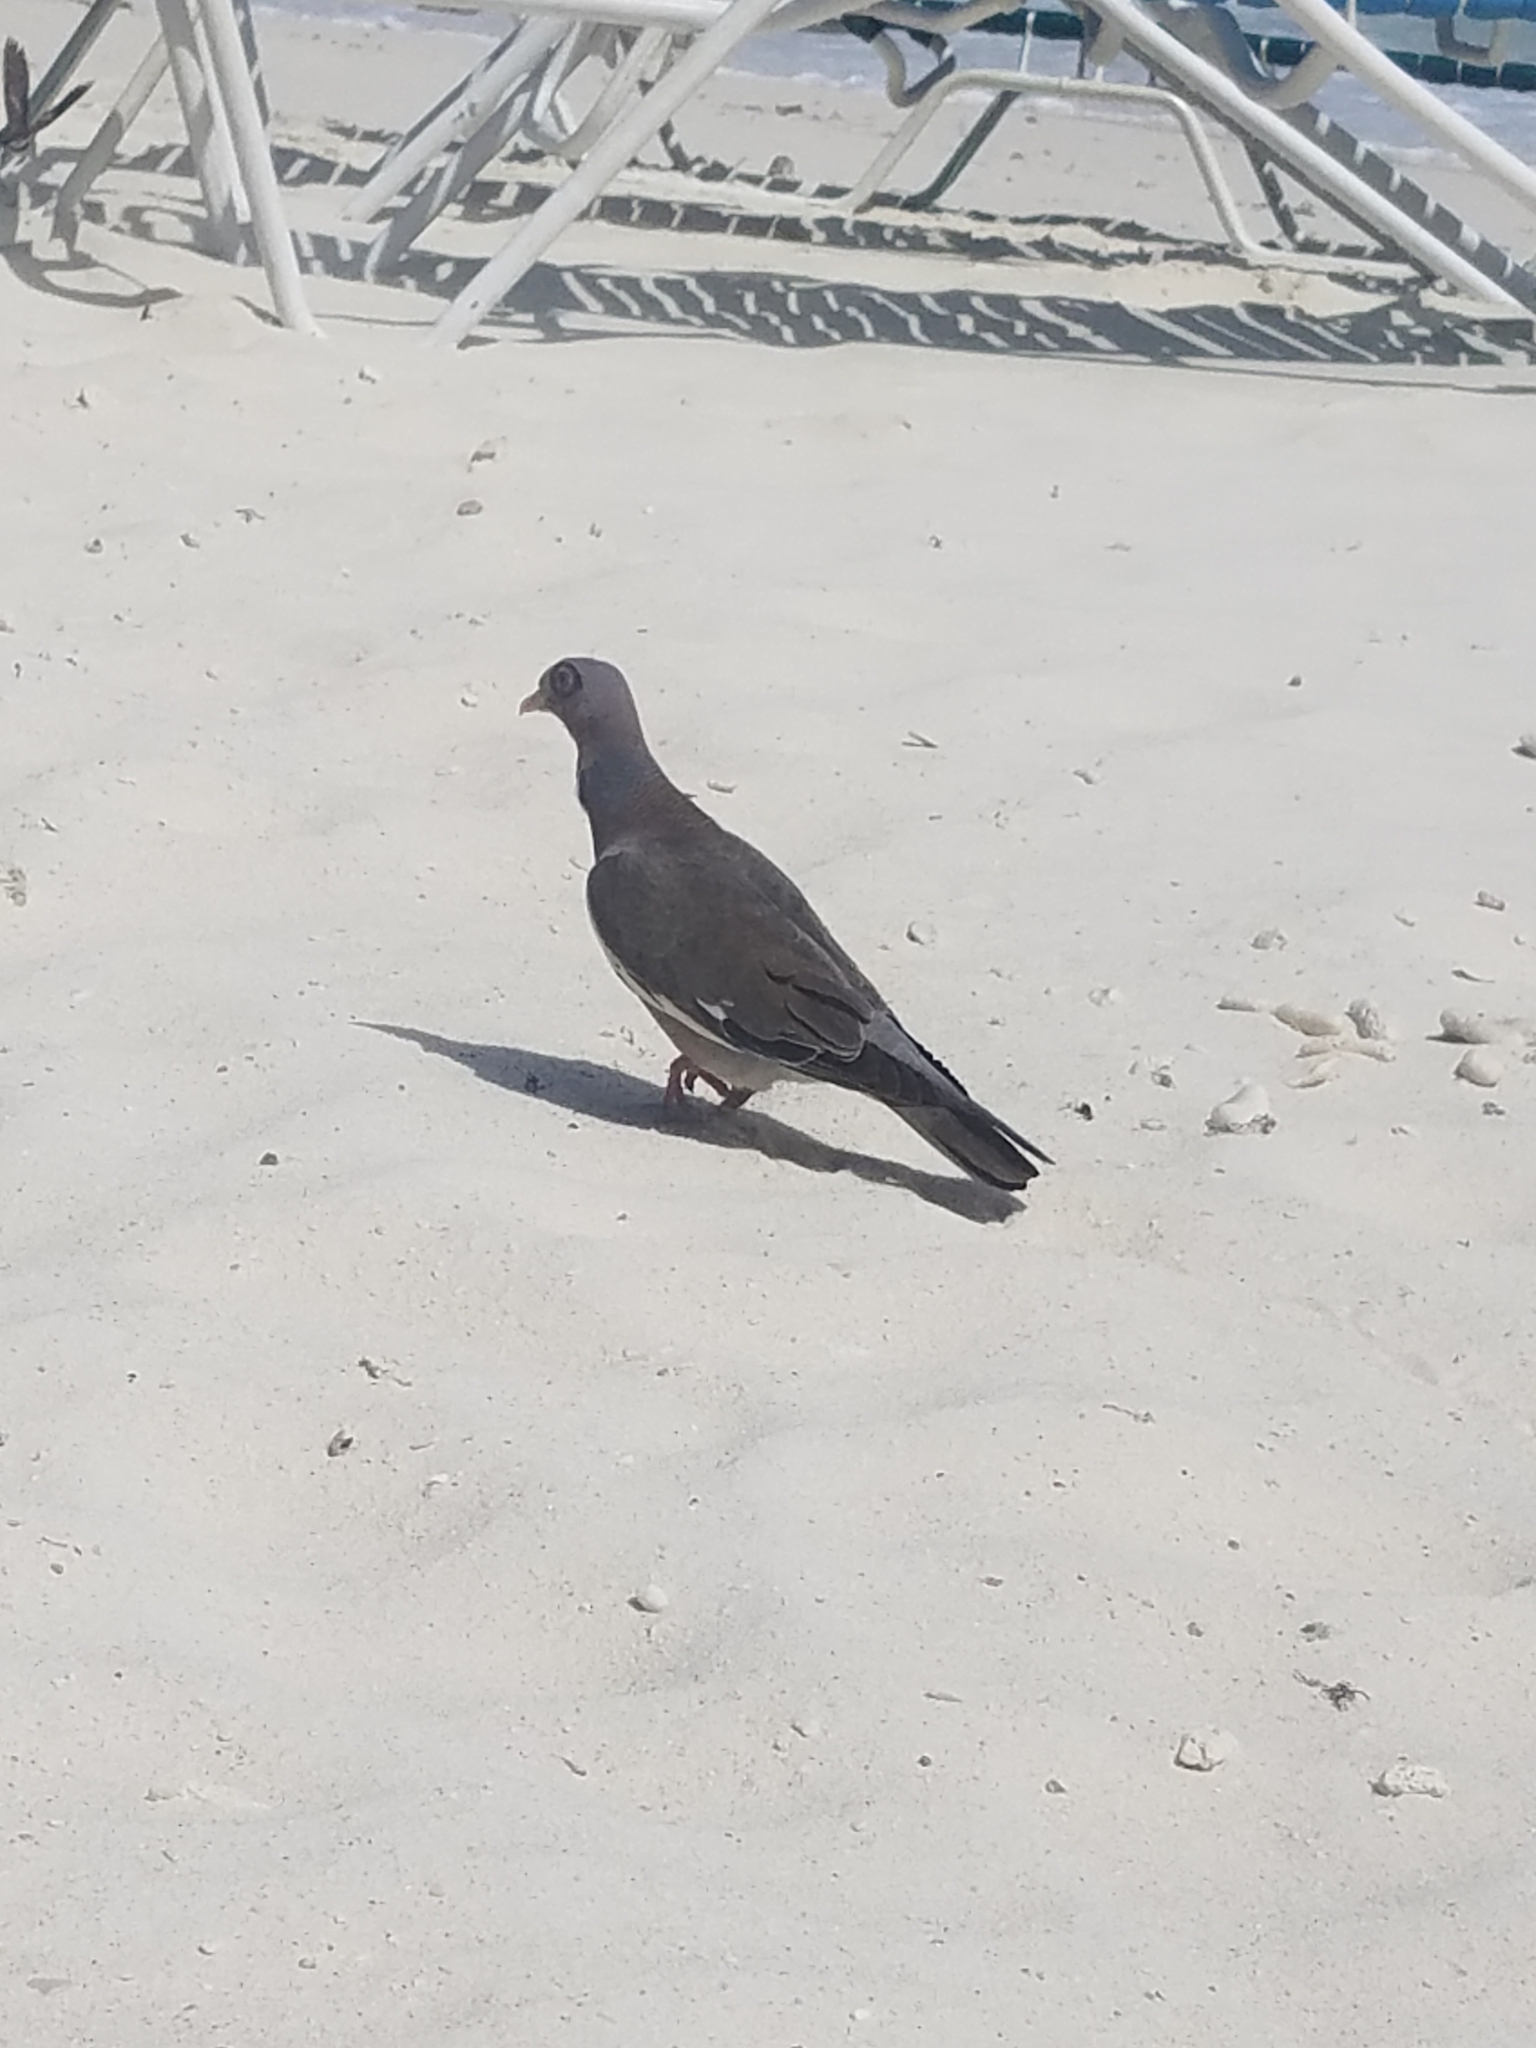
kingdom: Animalia
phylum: Chordata
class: Aves
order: Columbiformes
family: Columbidae
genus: Patagioenas
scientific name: Patagioenas corensis
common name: Bare-eyed pigeon
